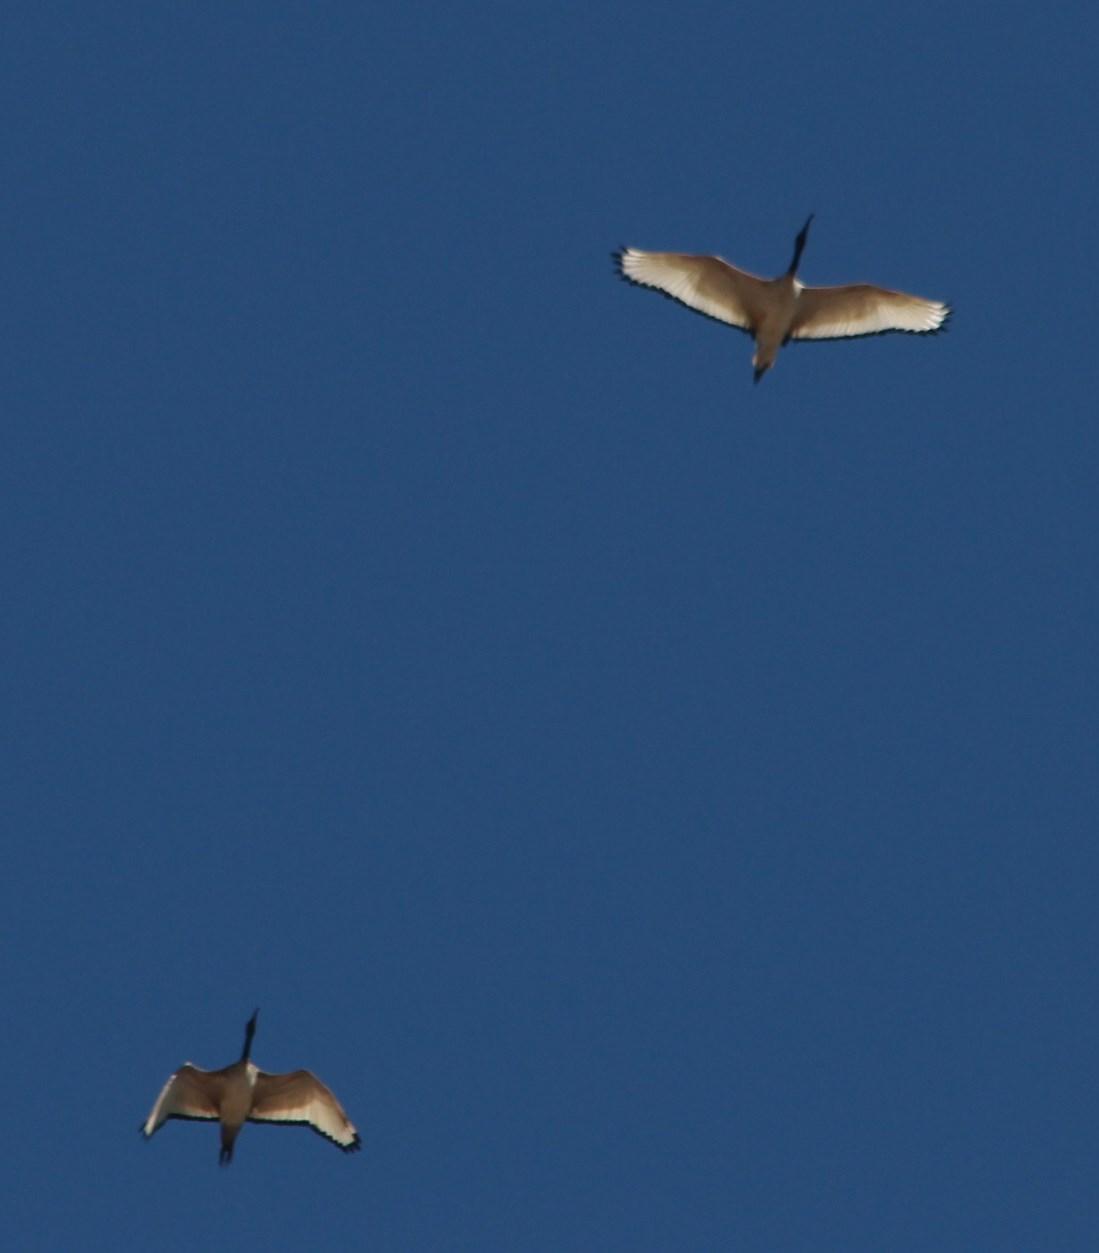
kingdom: Animalia
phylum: Chordata
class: Aves
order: Pelecaniformes
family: Threskiornithidae
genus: Threskiornis
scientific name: Threskiornis aethiopicus
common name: Sacred ibis
